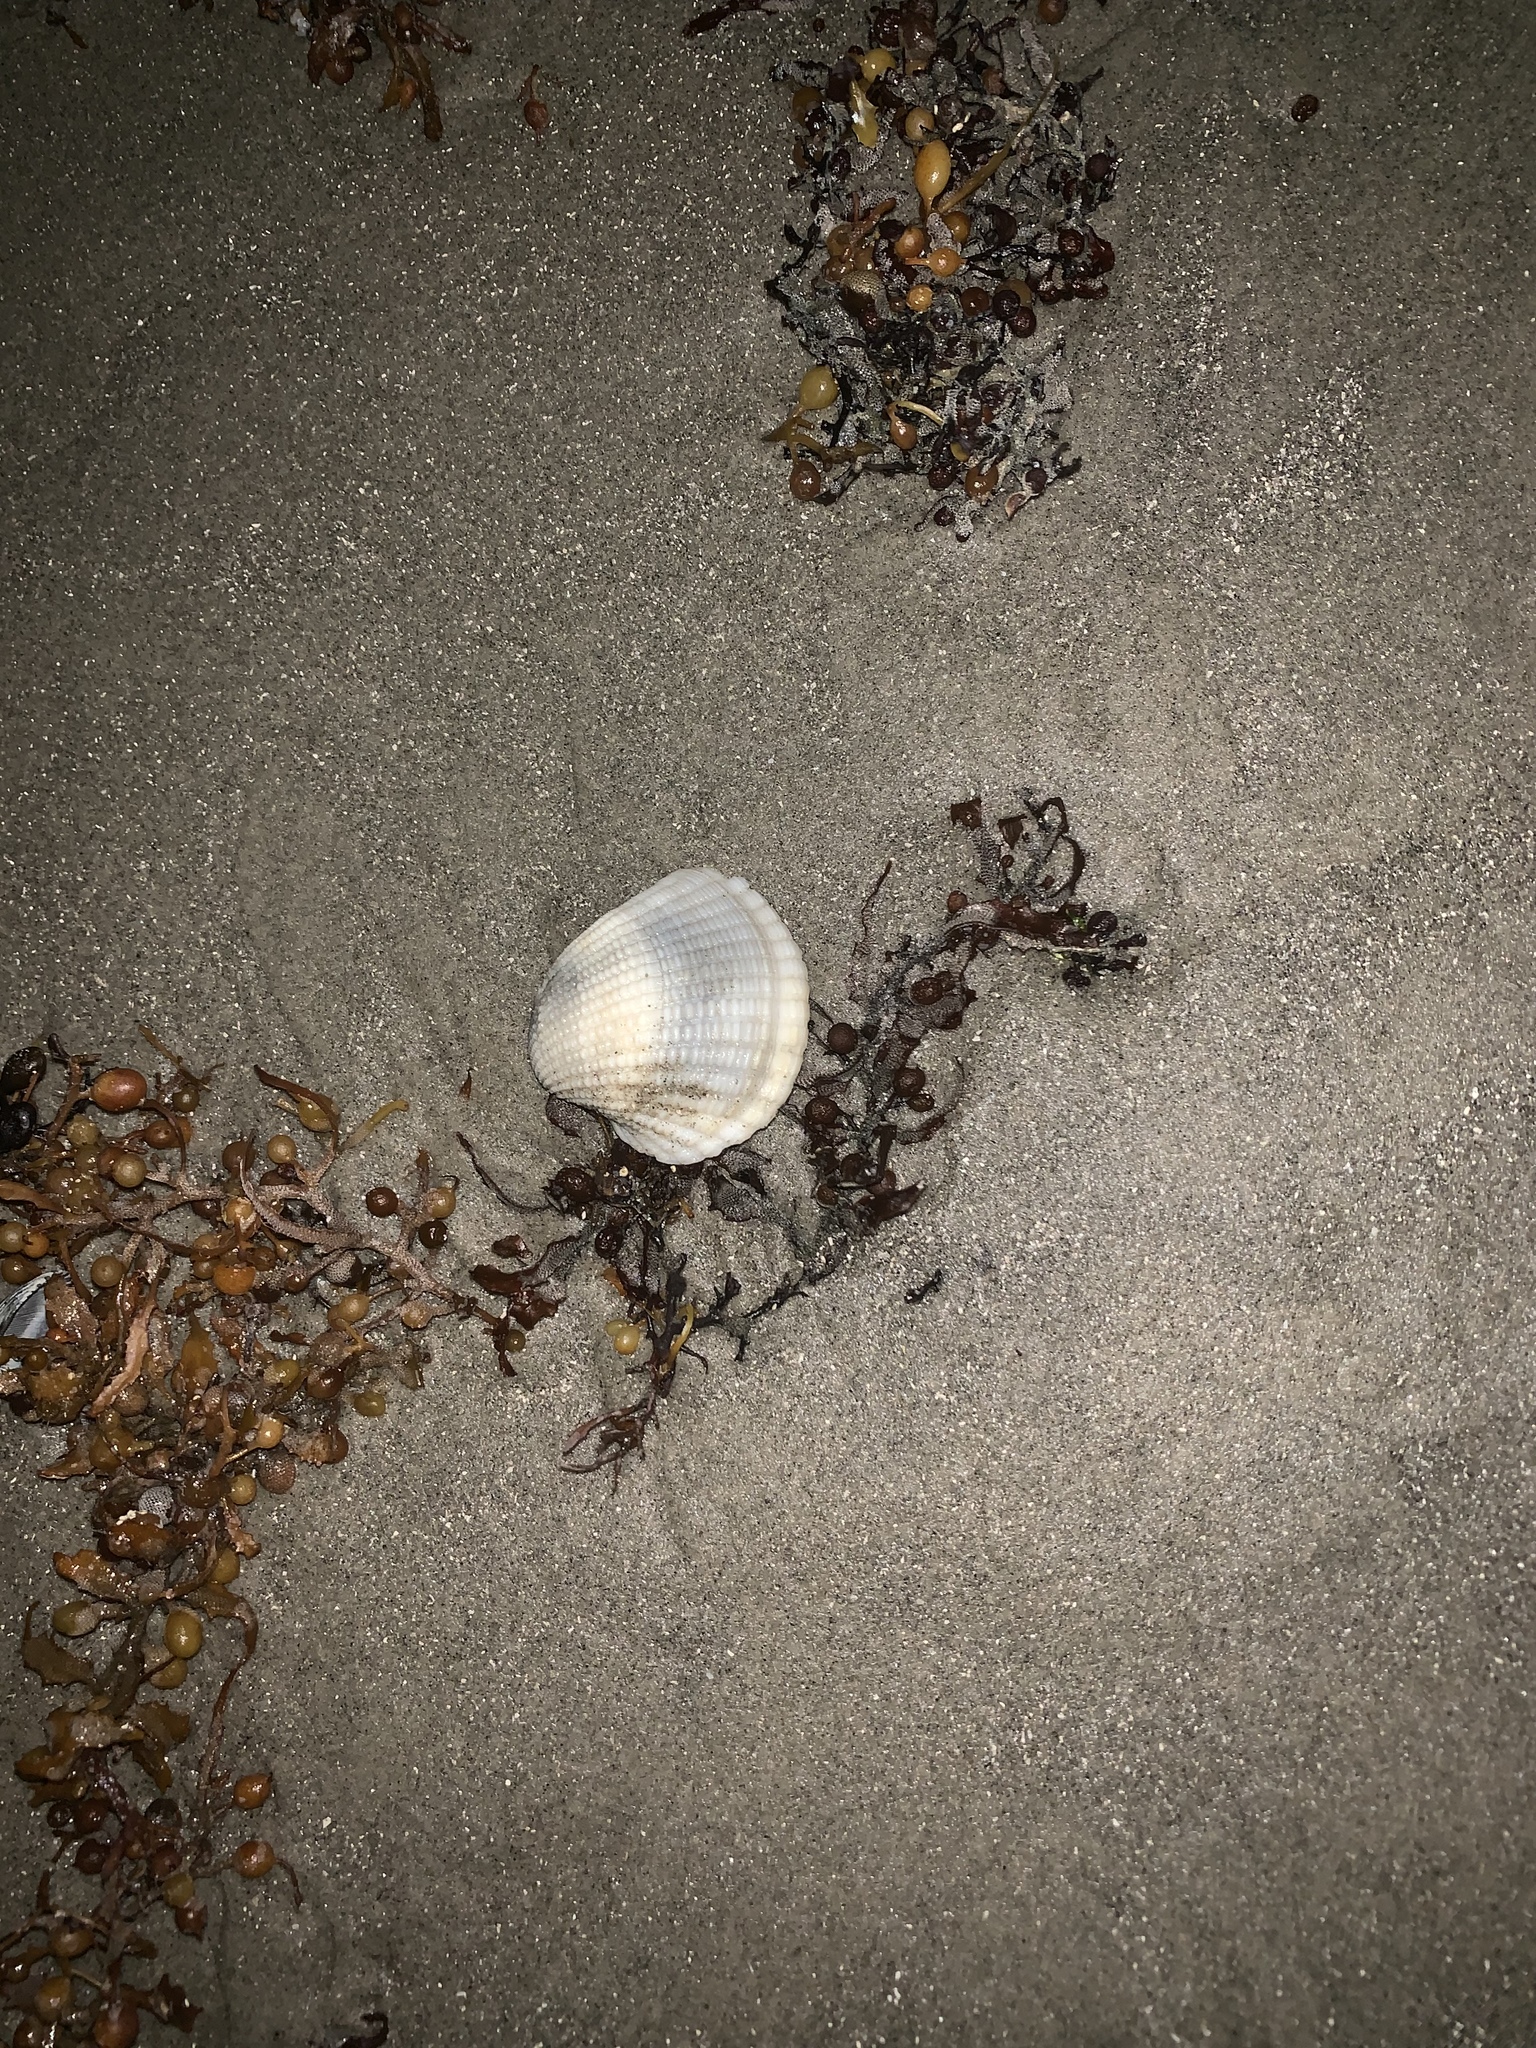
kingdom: Animalia
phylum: Mollusca
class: Bivalvia
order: Arcida
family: Arcidae
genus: Anadara
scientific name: Anadara brasiliana
